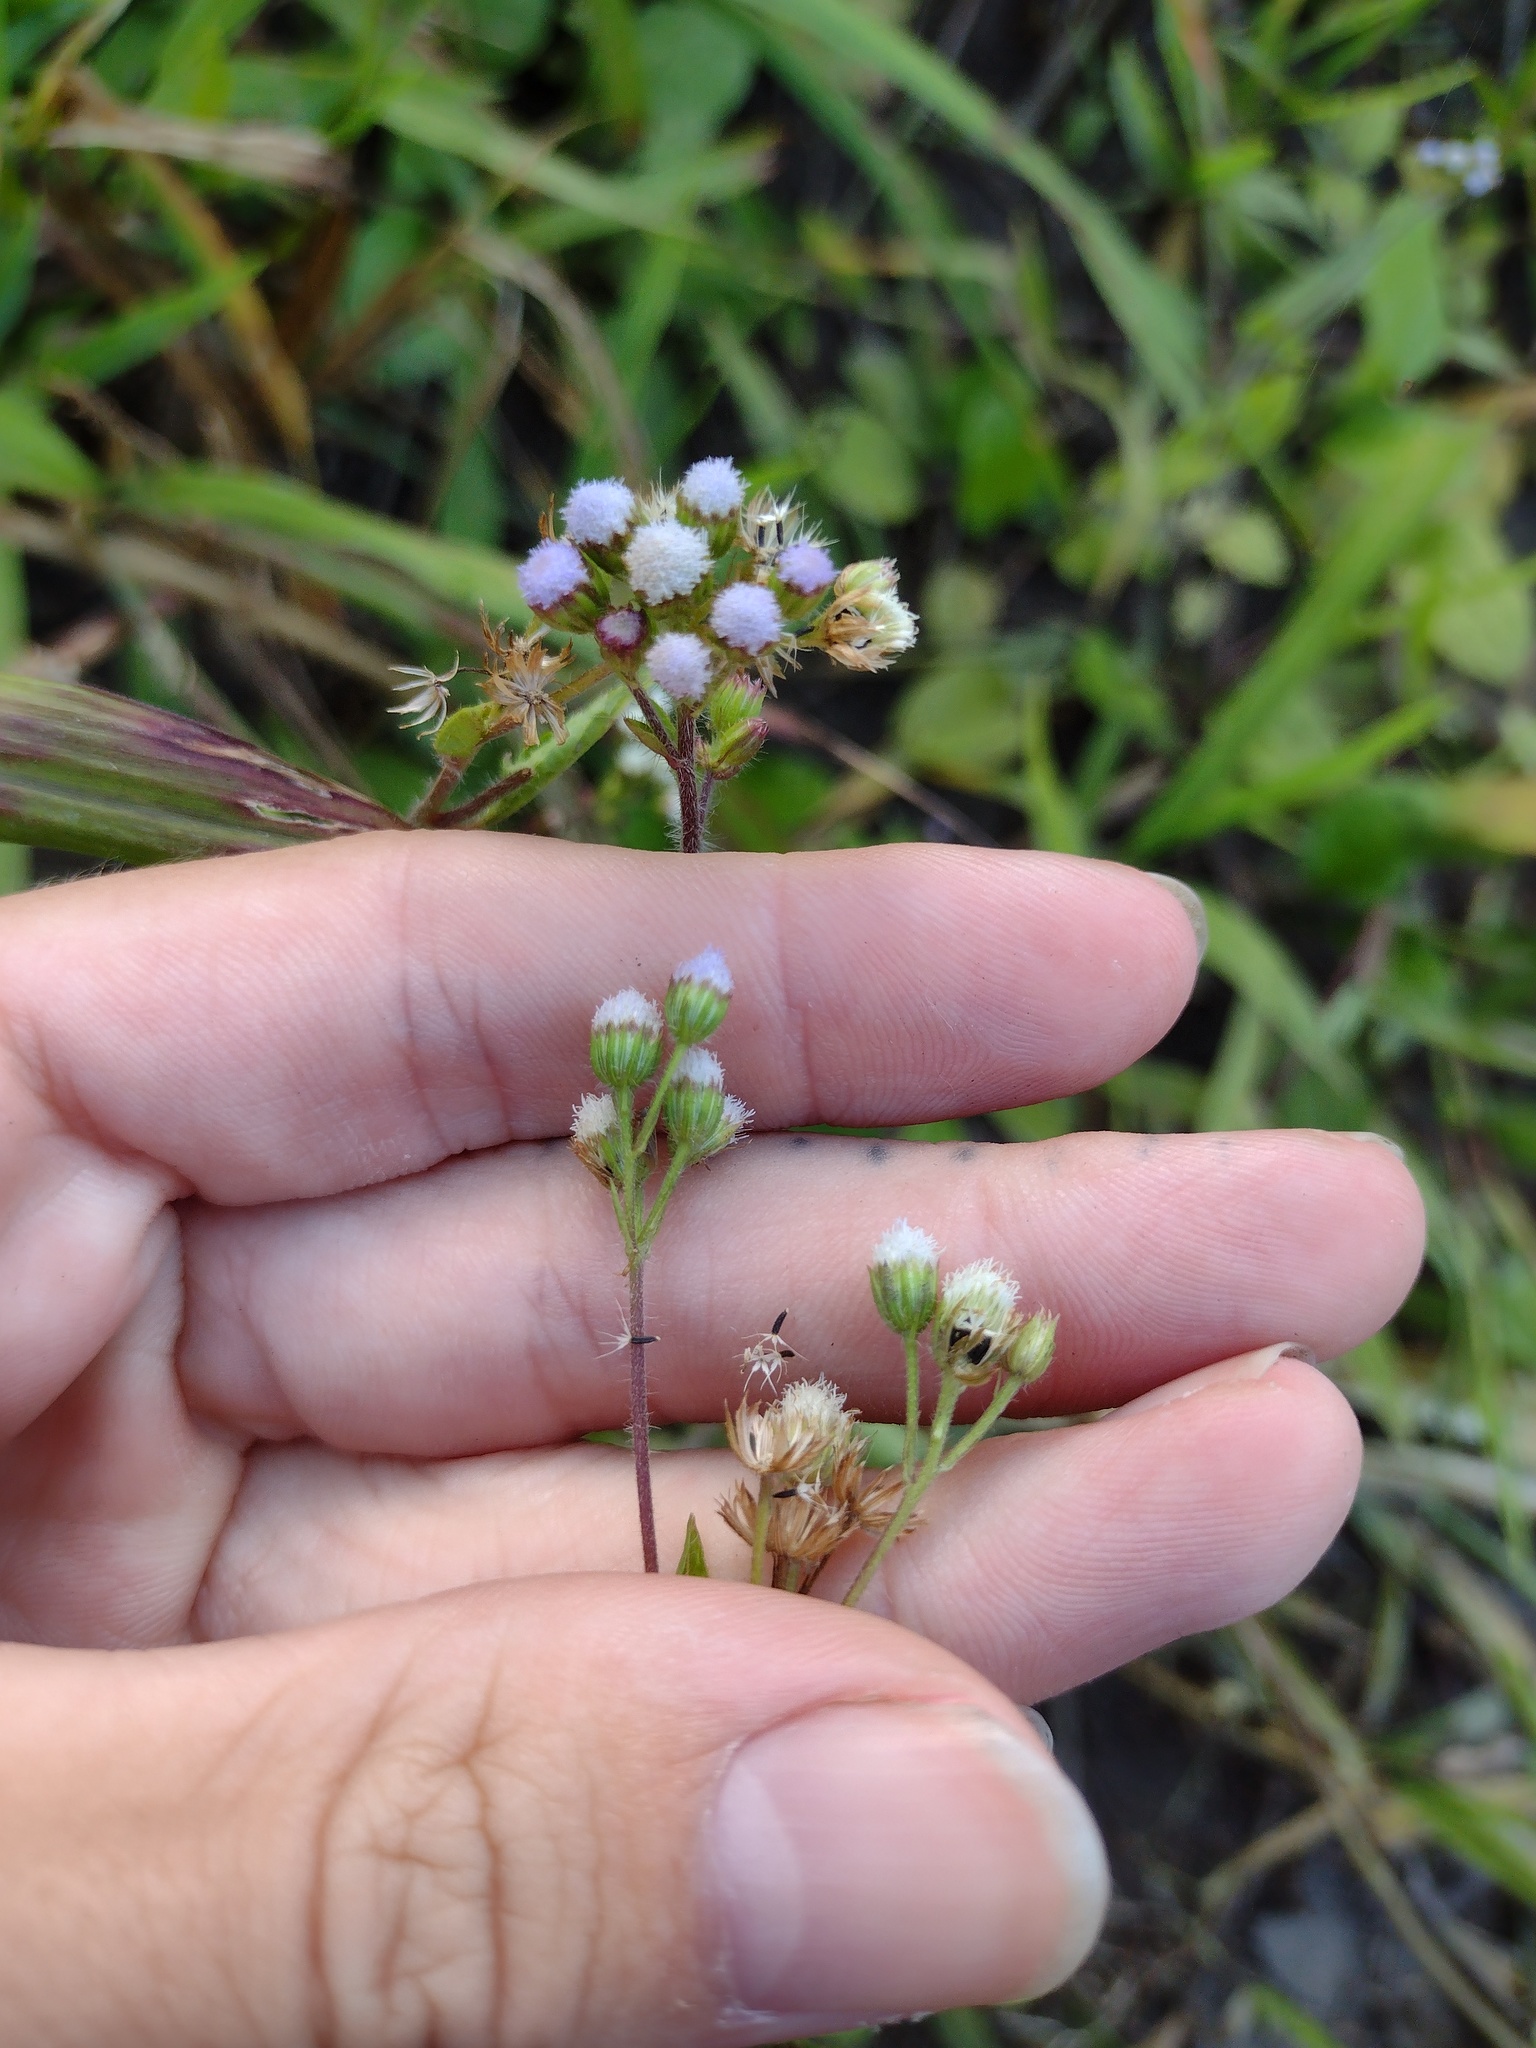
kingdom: Plantae
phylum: Tracheophyta
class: Magnoliopsida
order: Asterales
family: Asteraceae
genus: Ageratum
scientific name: Ageratum conyzoides
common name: Tropical whiteweed
